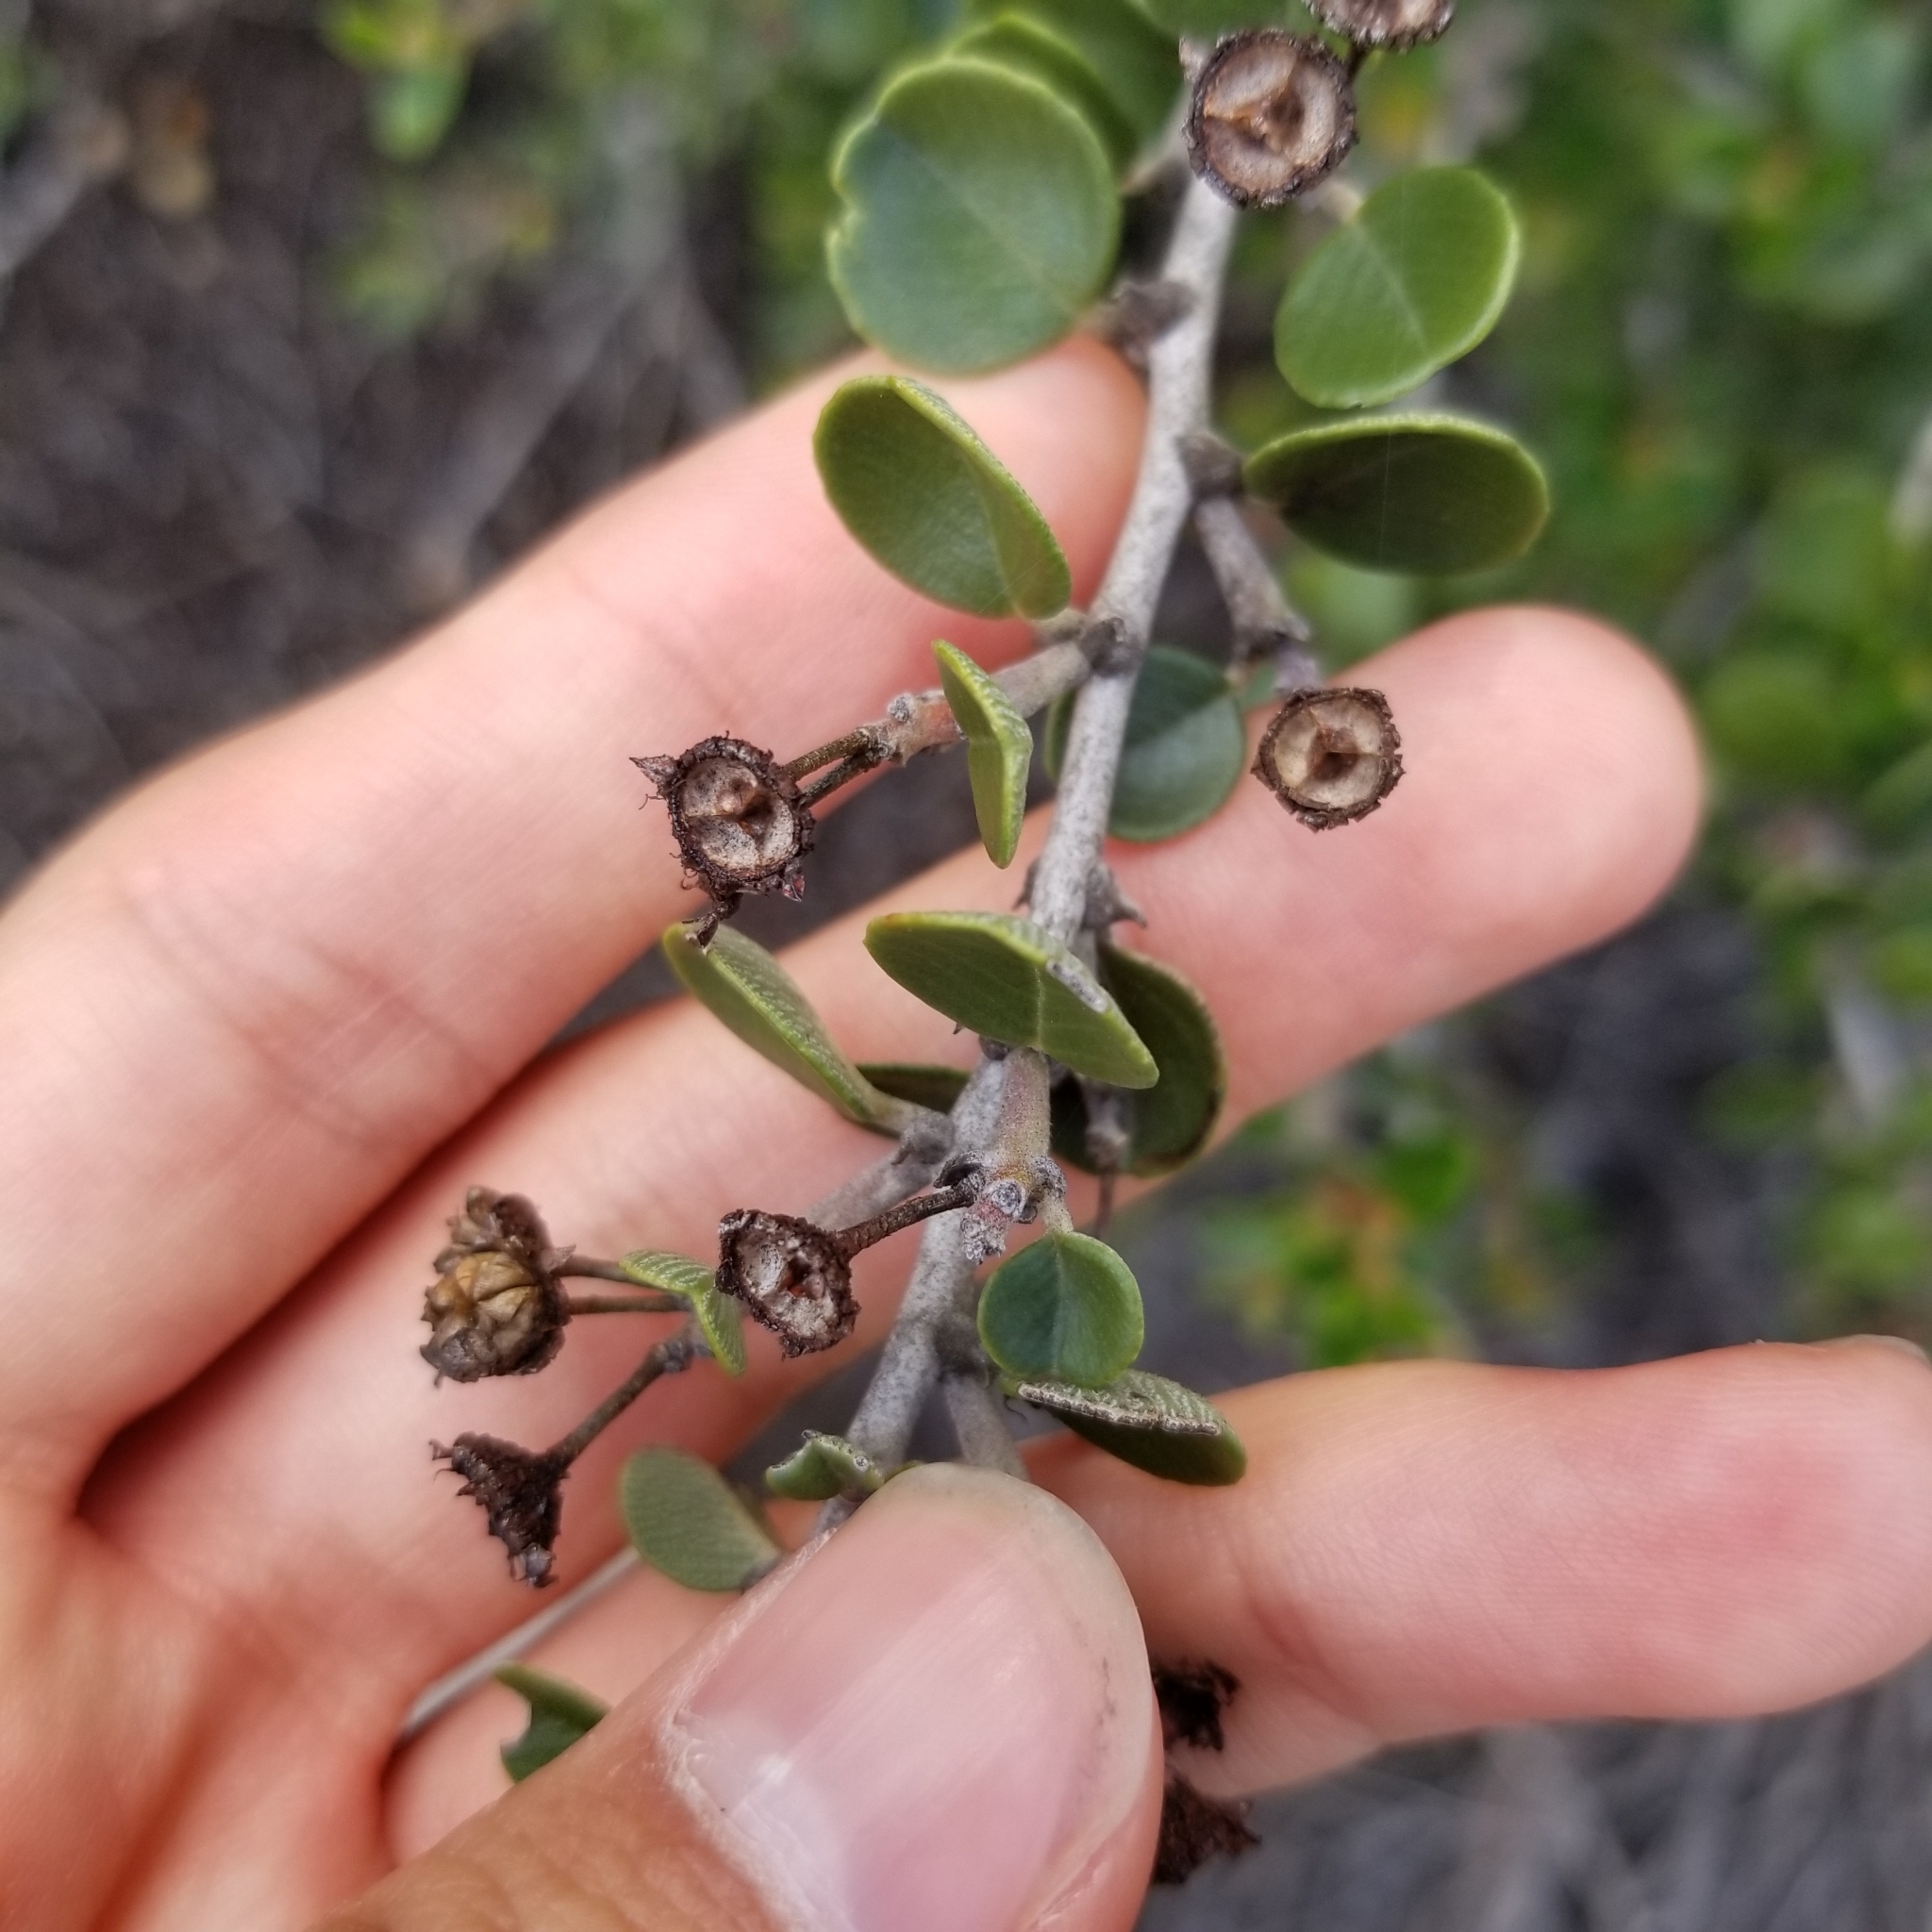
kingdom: Plantae
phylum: Tracheophyta
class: Magnoliopsida
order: Rosales
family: Rhamnaceae
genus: Ceanothus
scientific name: Ceanothus verrucosus
